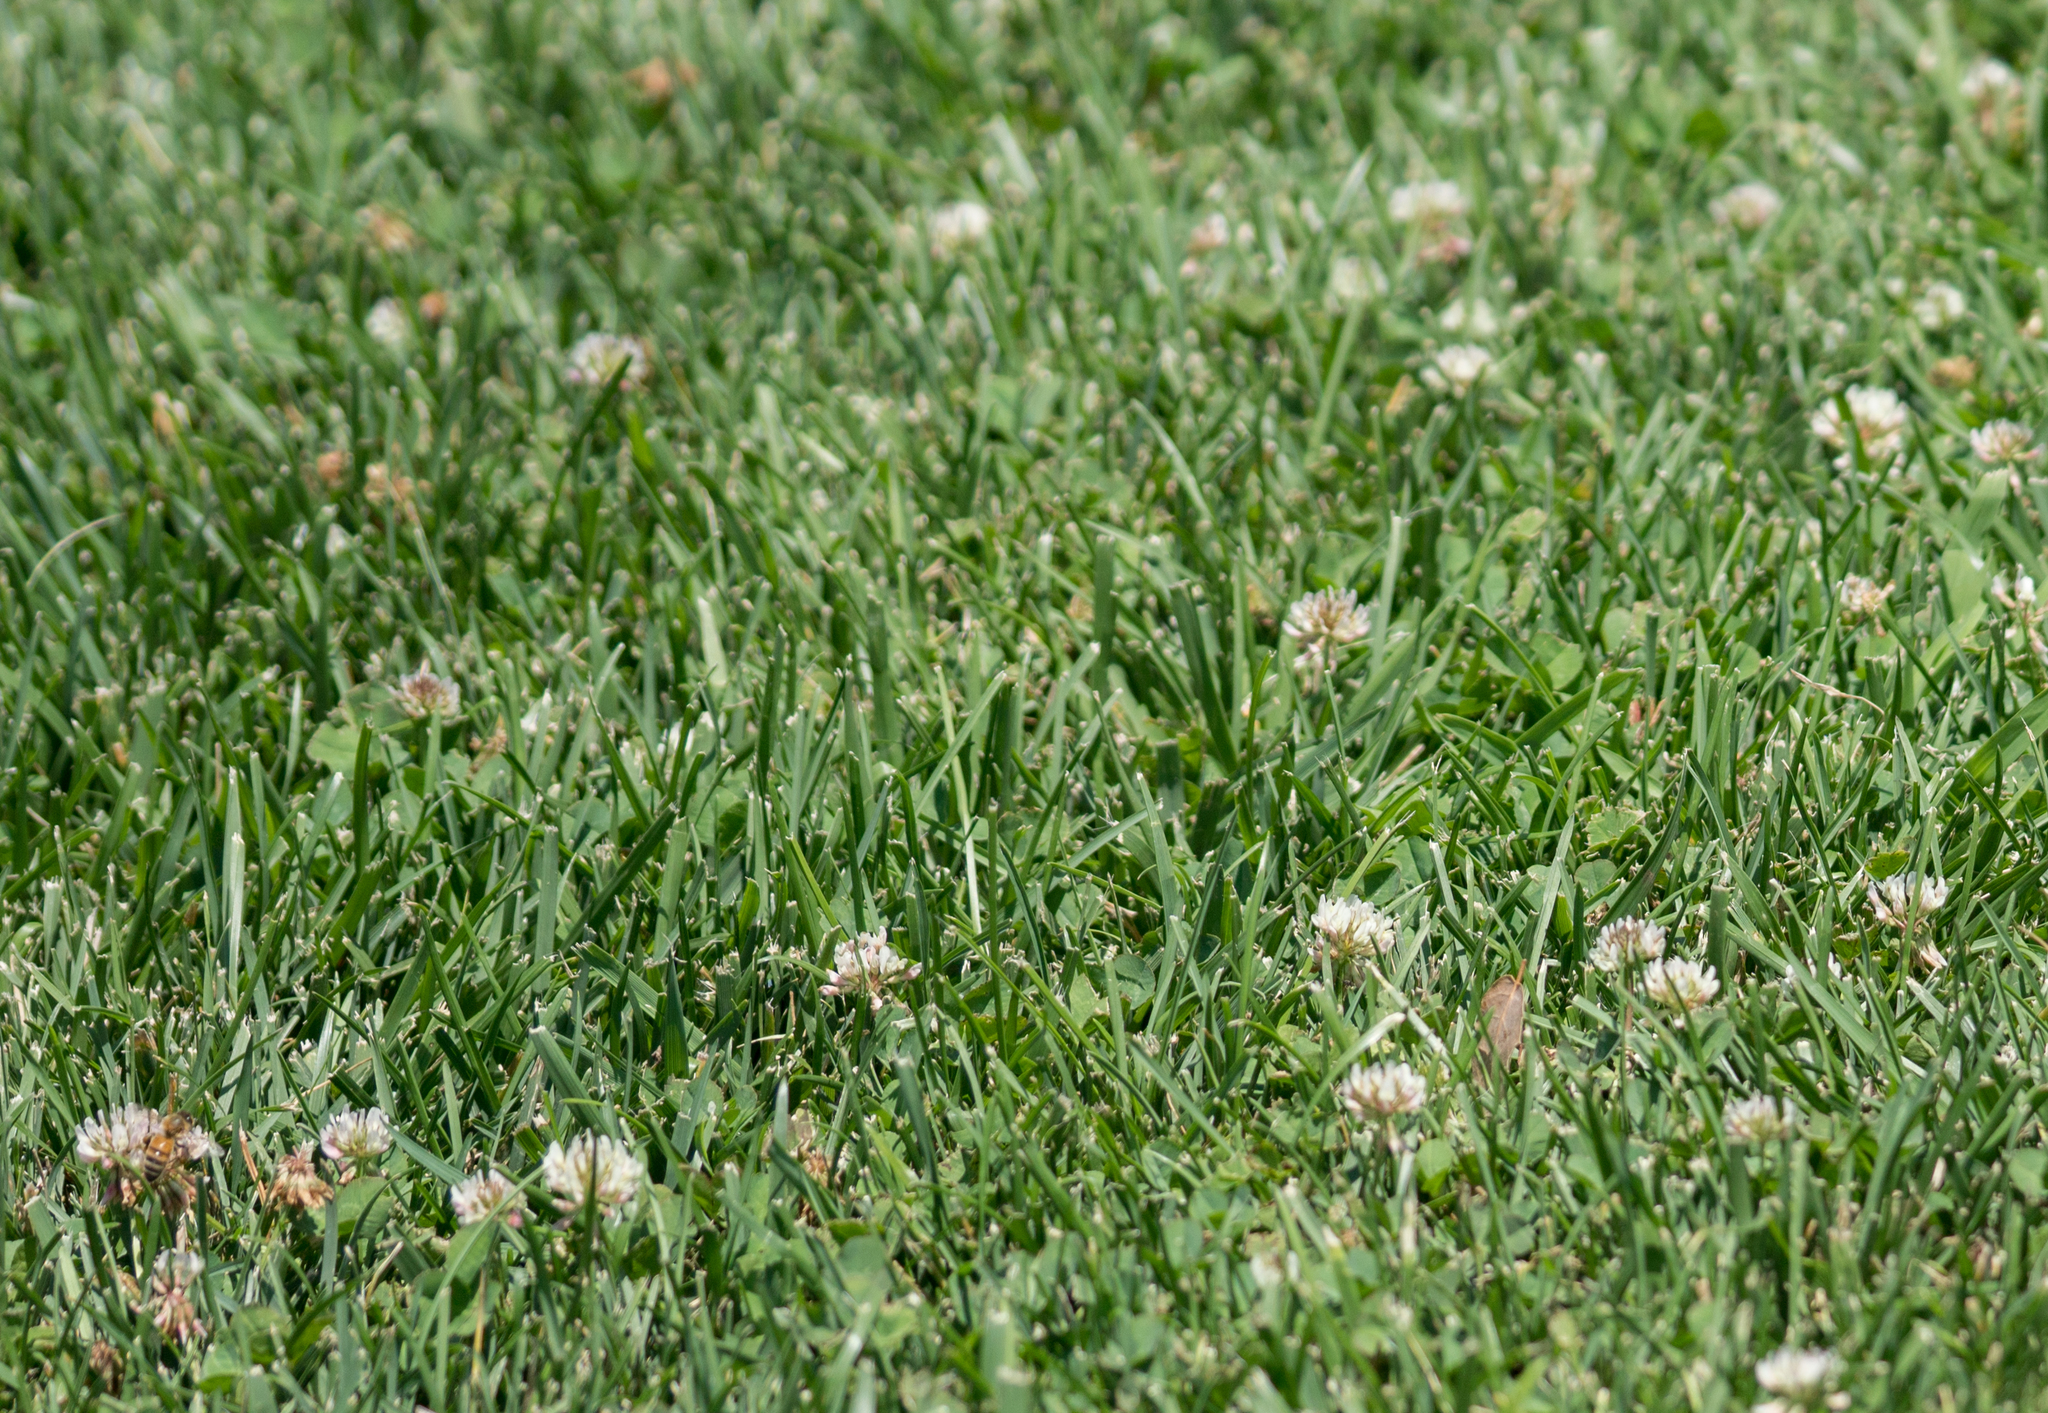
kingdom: Plantae
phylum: Tracheophyta
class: Magnoliopsida
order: Fabales
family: Fabaceae
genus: Trifolium
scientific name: Trifolium repens
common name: White clover
